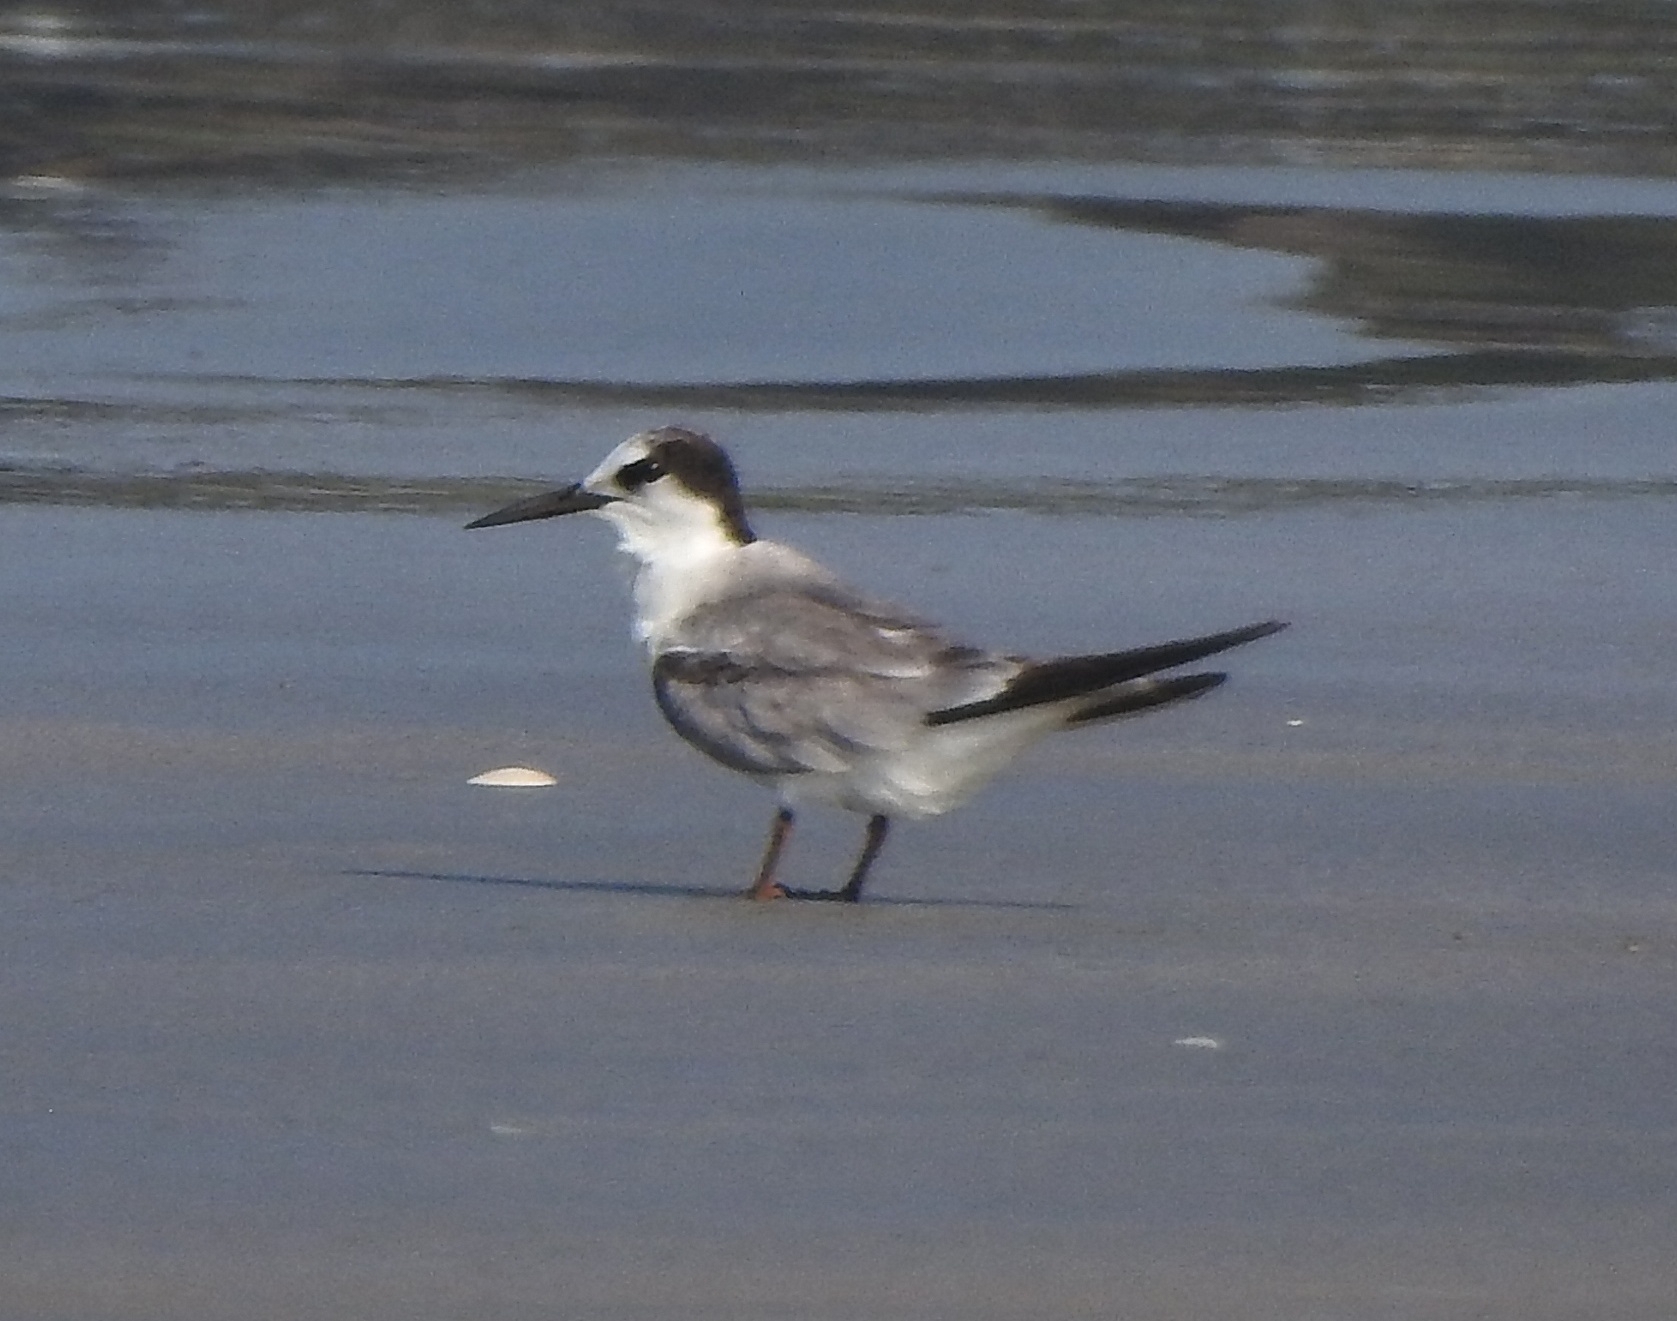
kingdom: Animalia
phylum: Chordata
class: Aves
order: Charadriiformes
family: Laridae
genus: Sternula
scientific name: Sternula albifrons
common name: Little tern
